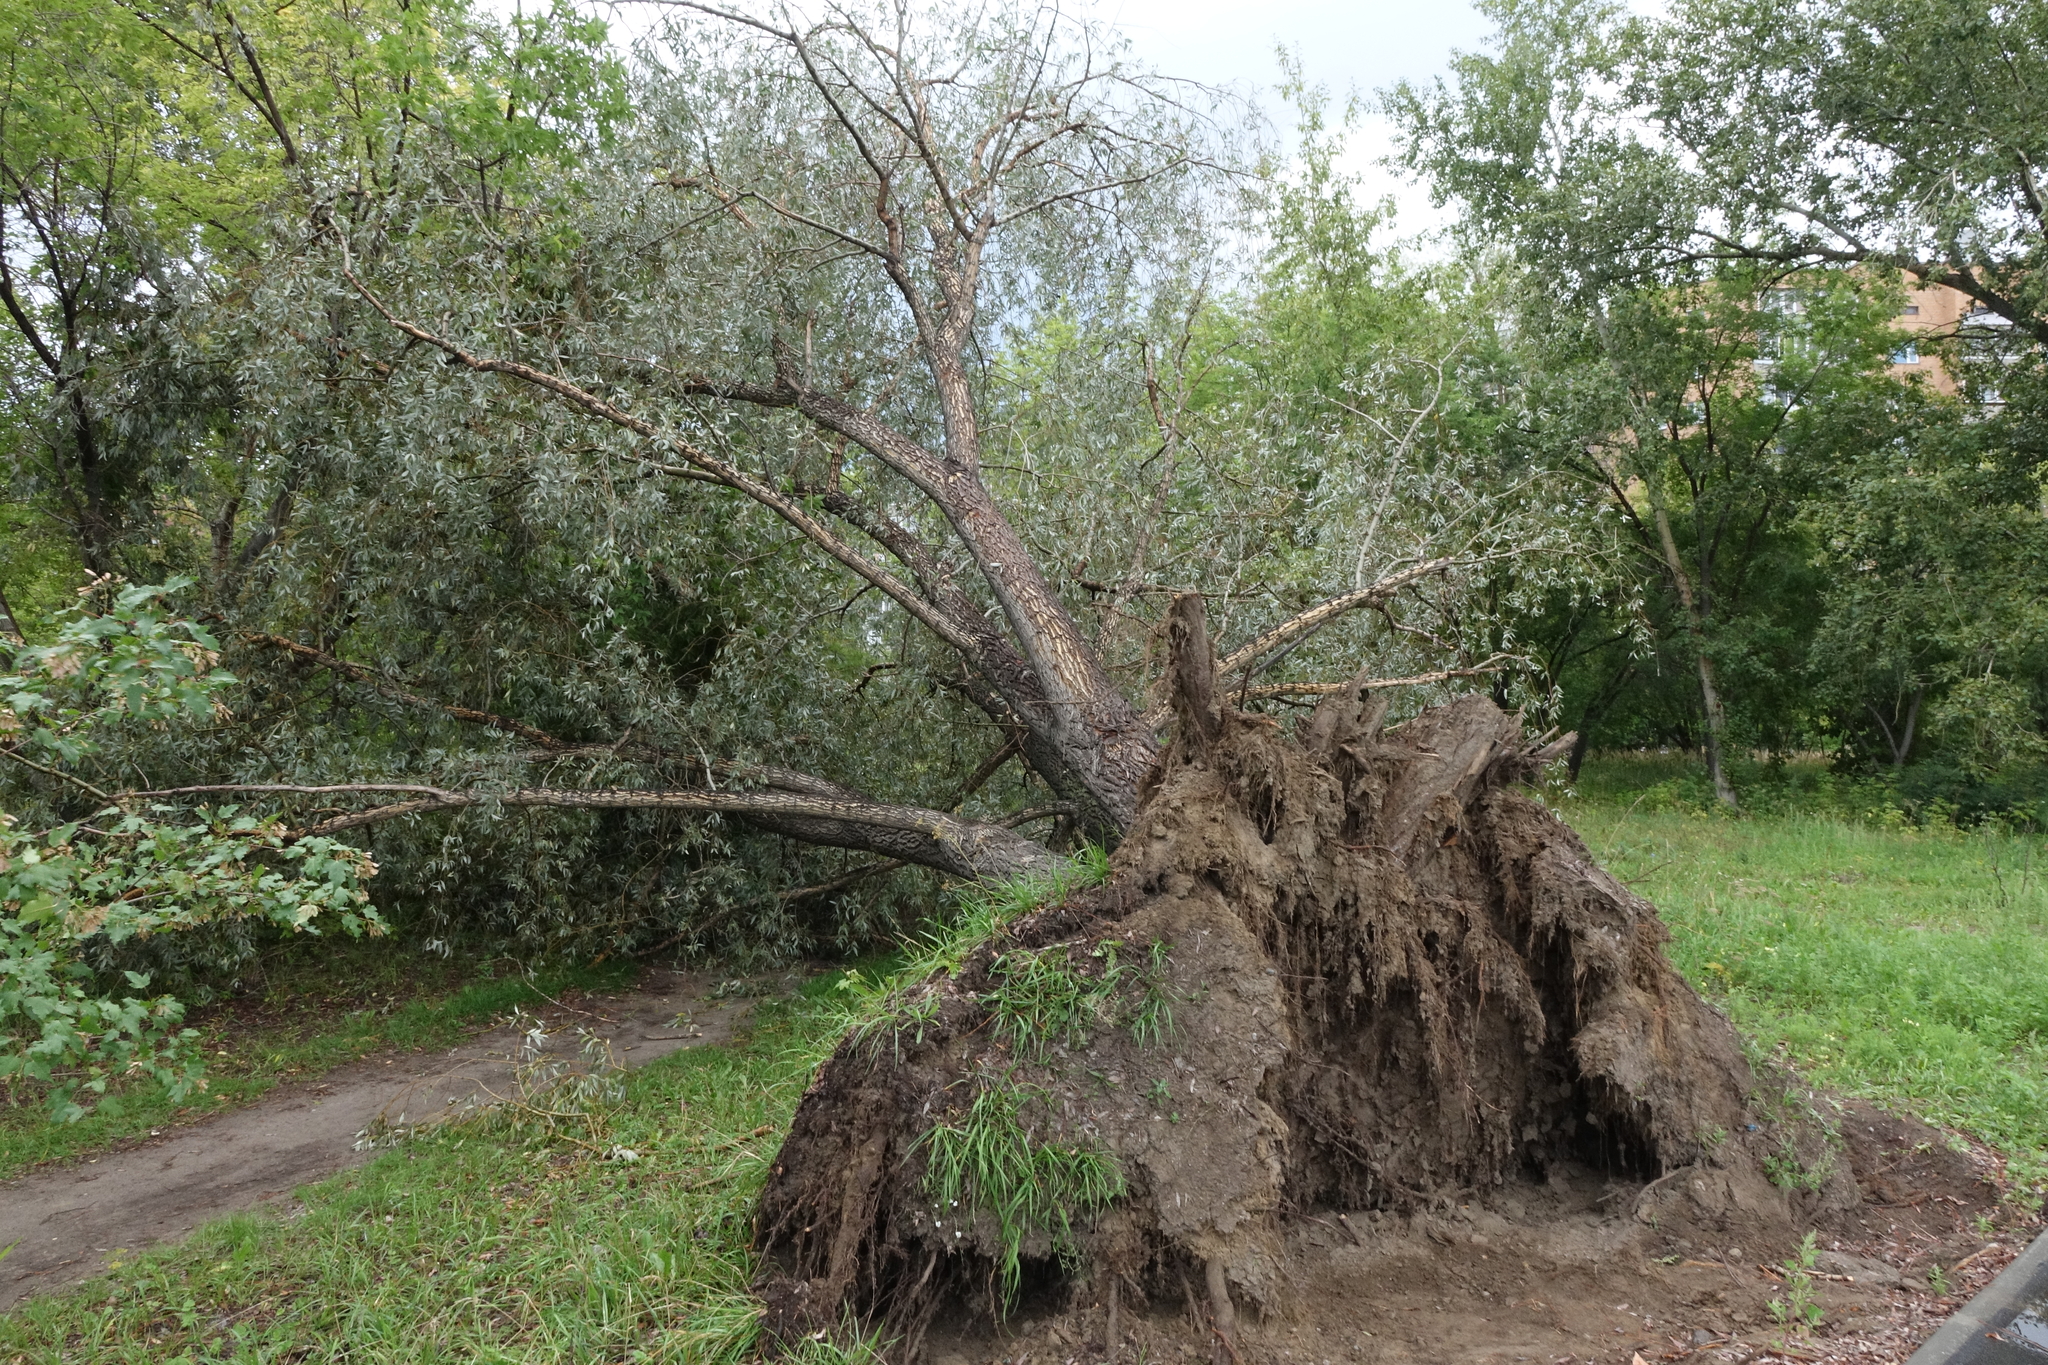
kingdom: Plantae
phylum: Tracheophyta
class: Magnoliopsida
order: Malpighiales
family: Salicaceae
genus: Salix
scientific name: Salix alba
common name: White willow
